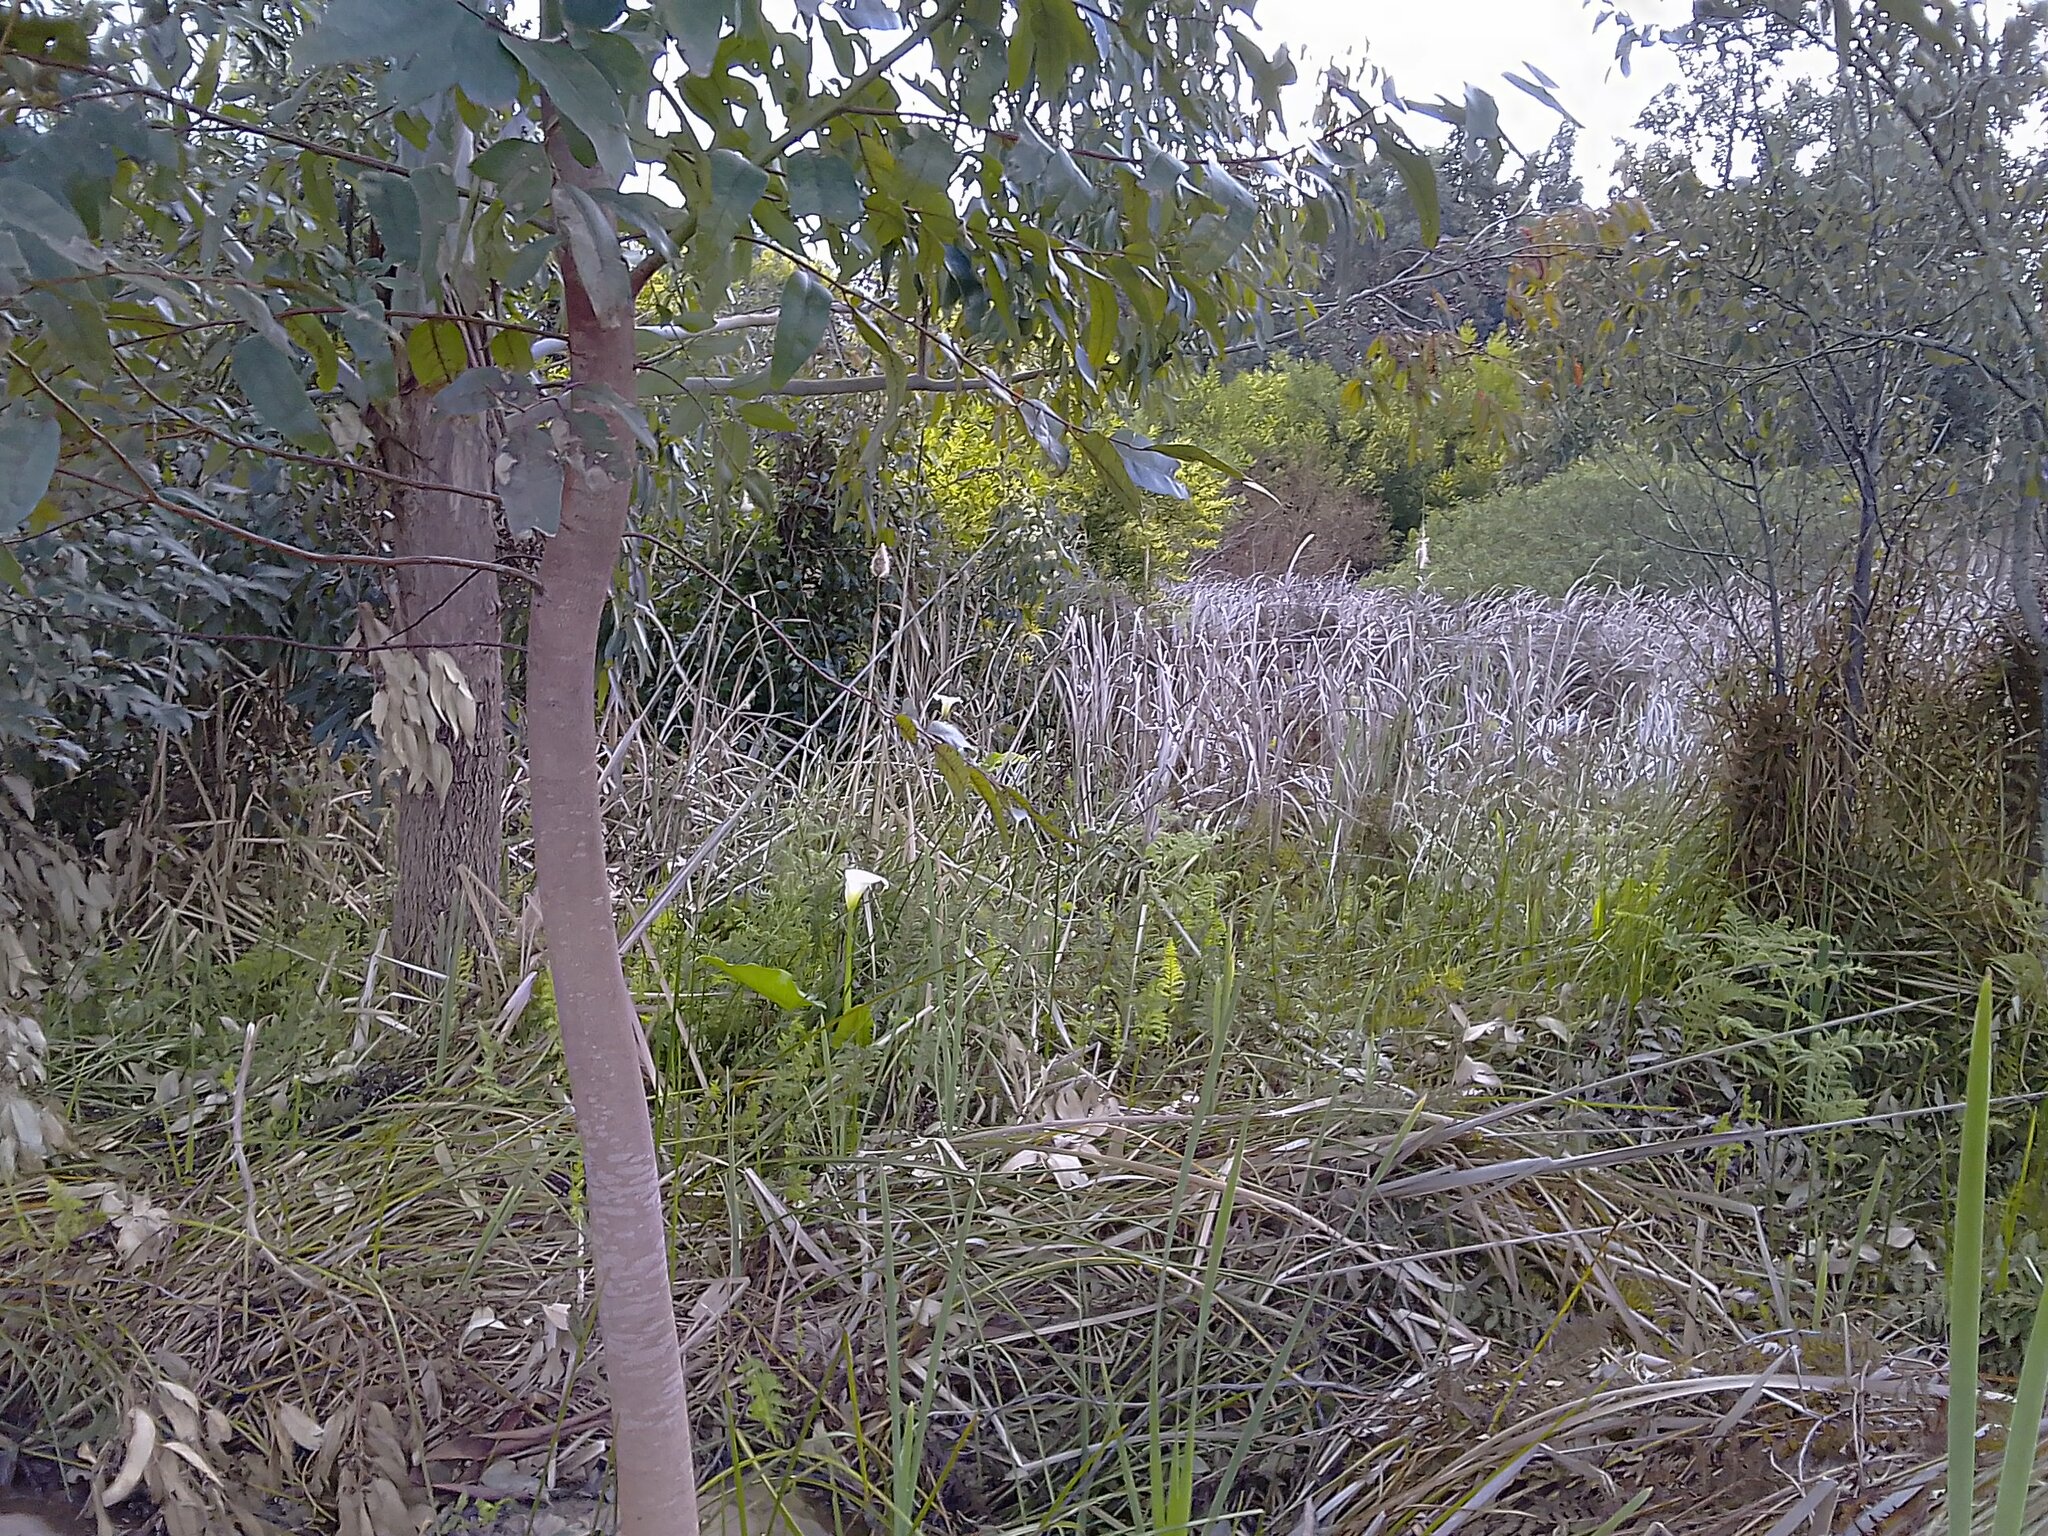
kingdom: Plantae
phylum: Tracheophyta
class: Liliopsida
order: Alismatales
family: Araceae
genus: Zantedeschia
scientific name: Zantedeschia aethiopica
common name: Altar-lily
